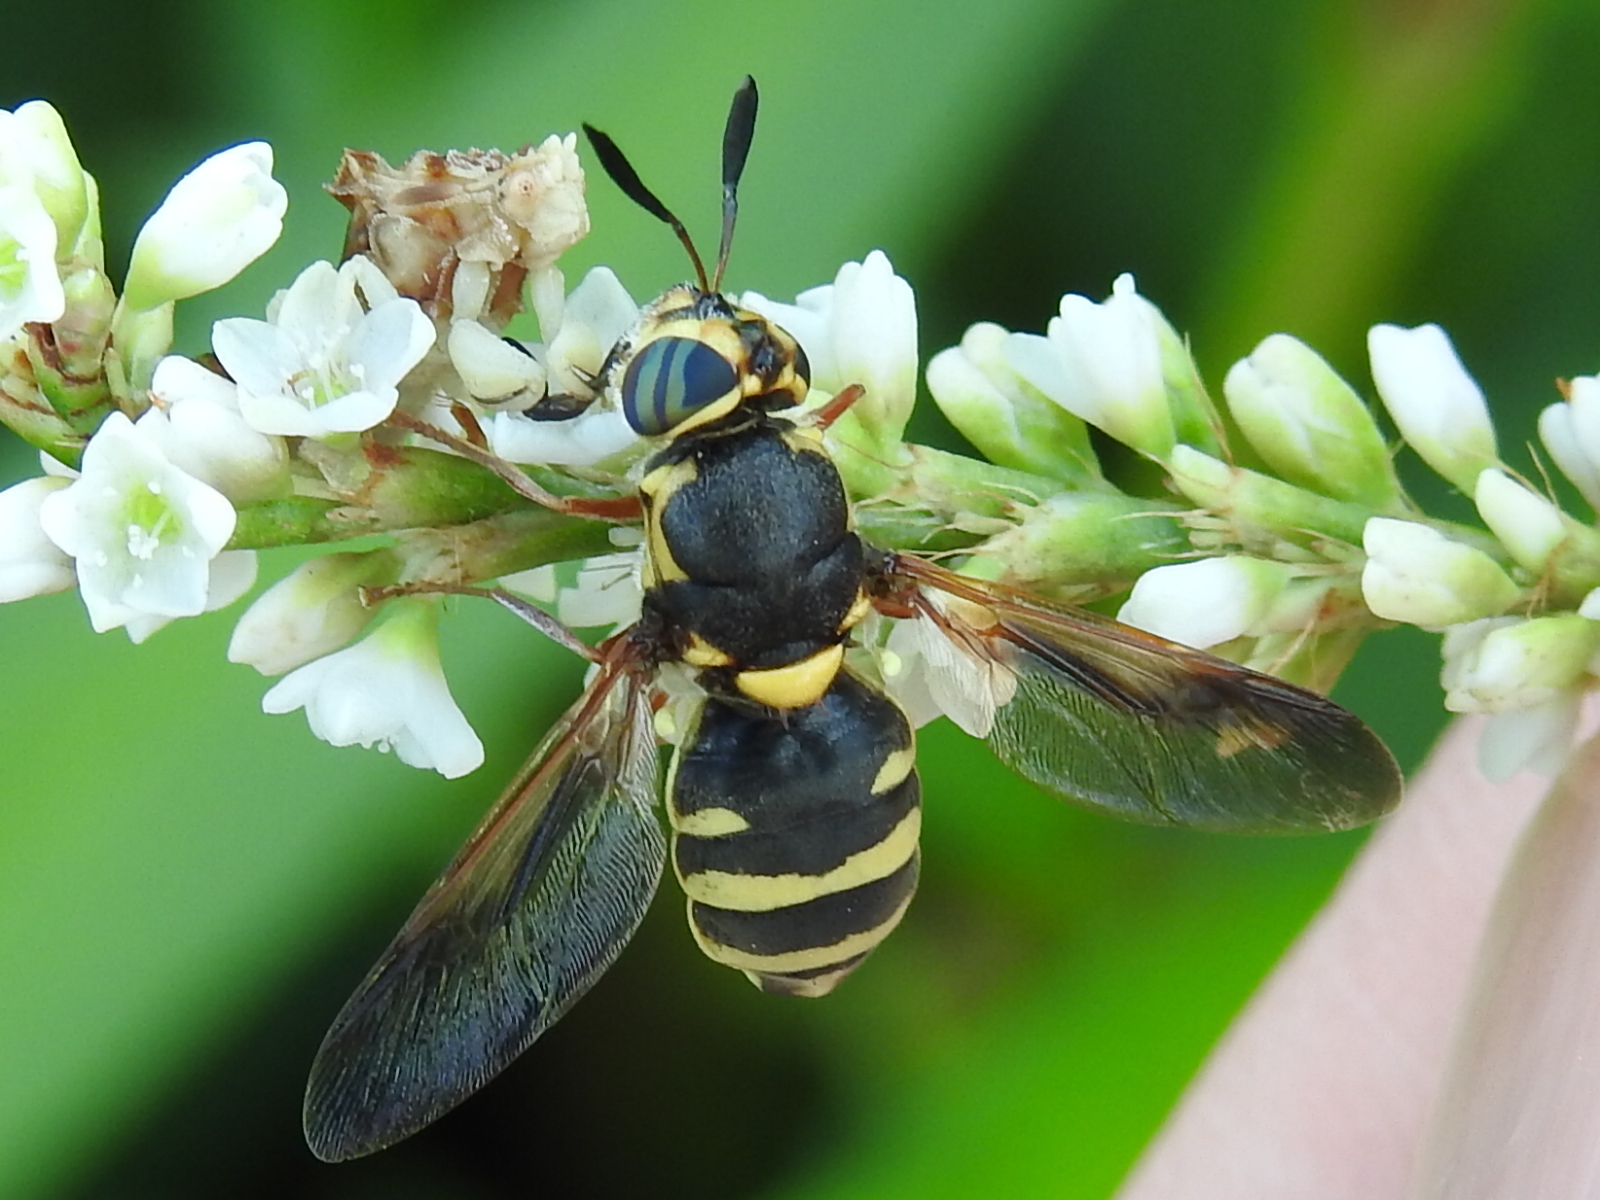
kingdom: Animalia
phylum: Arthropoda
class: Insecta
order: Diptera
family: Stratiomyidae
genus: Hoplitimyia
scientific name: Hoplitimyia constans
